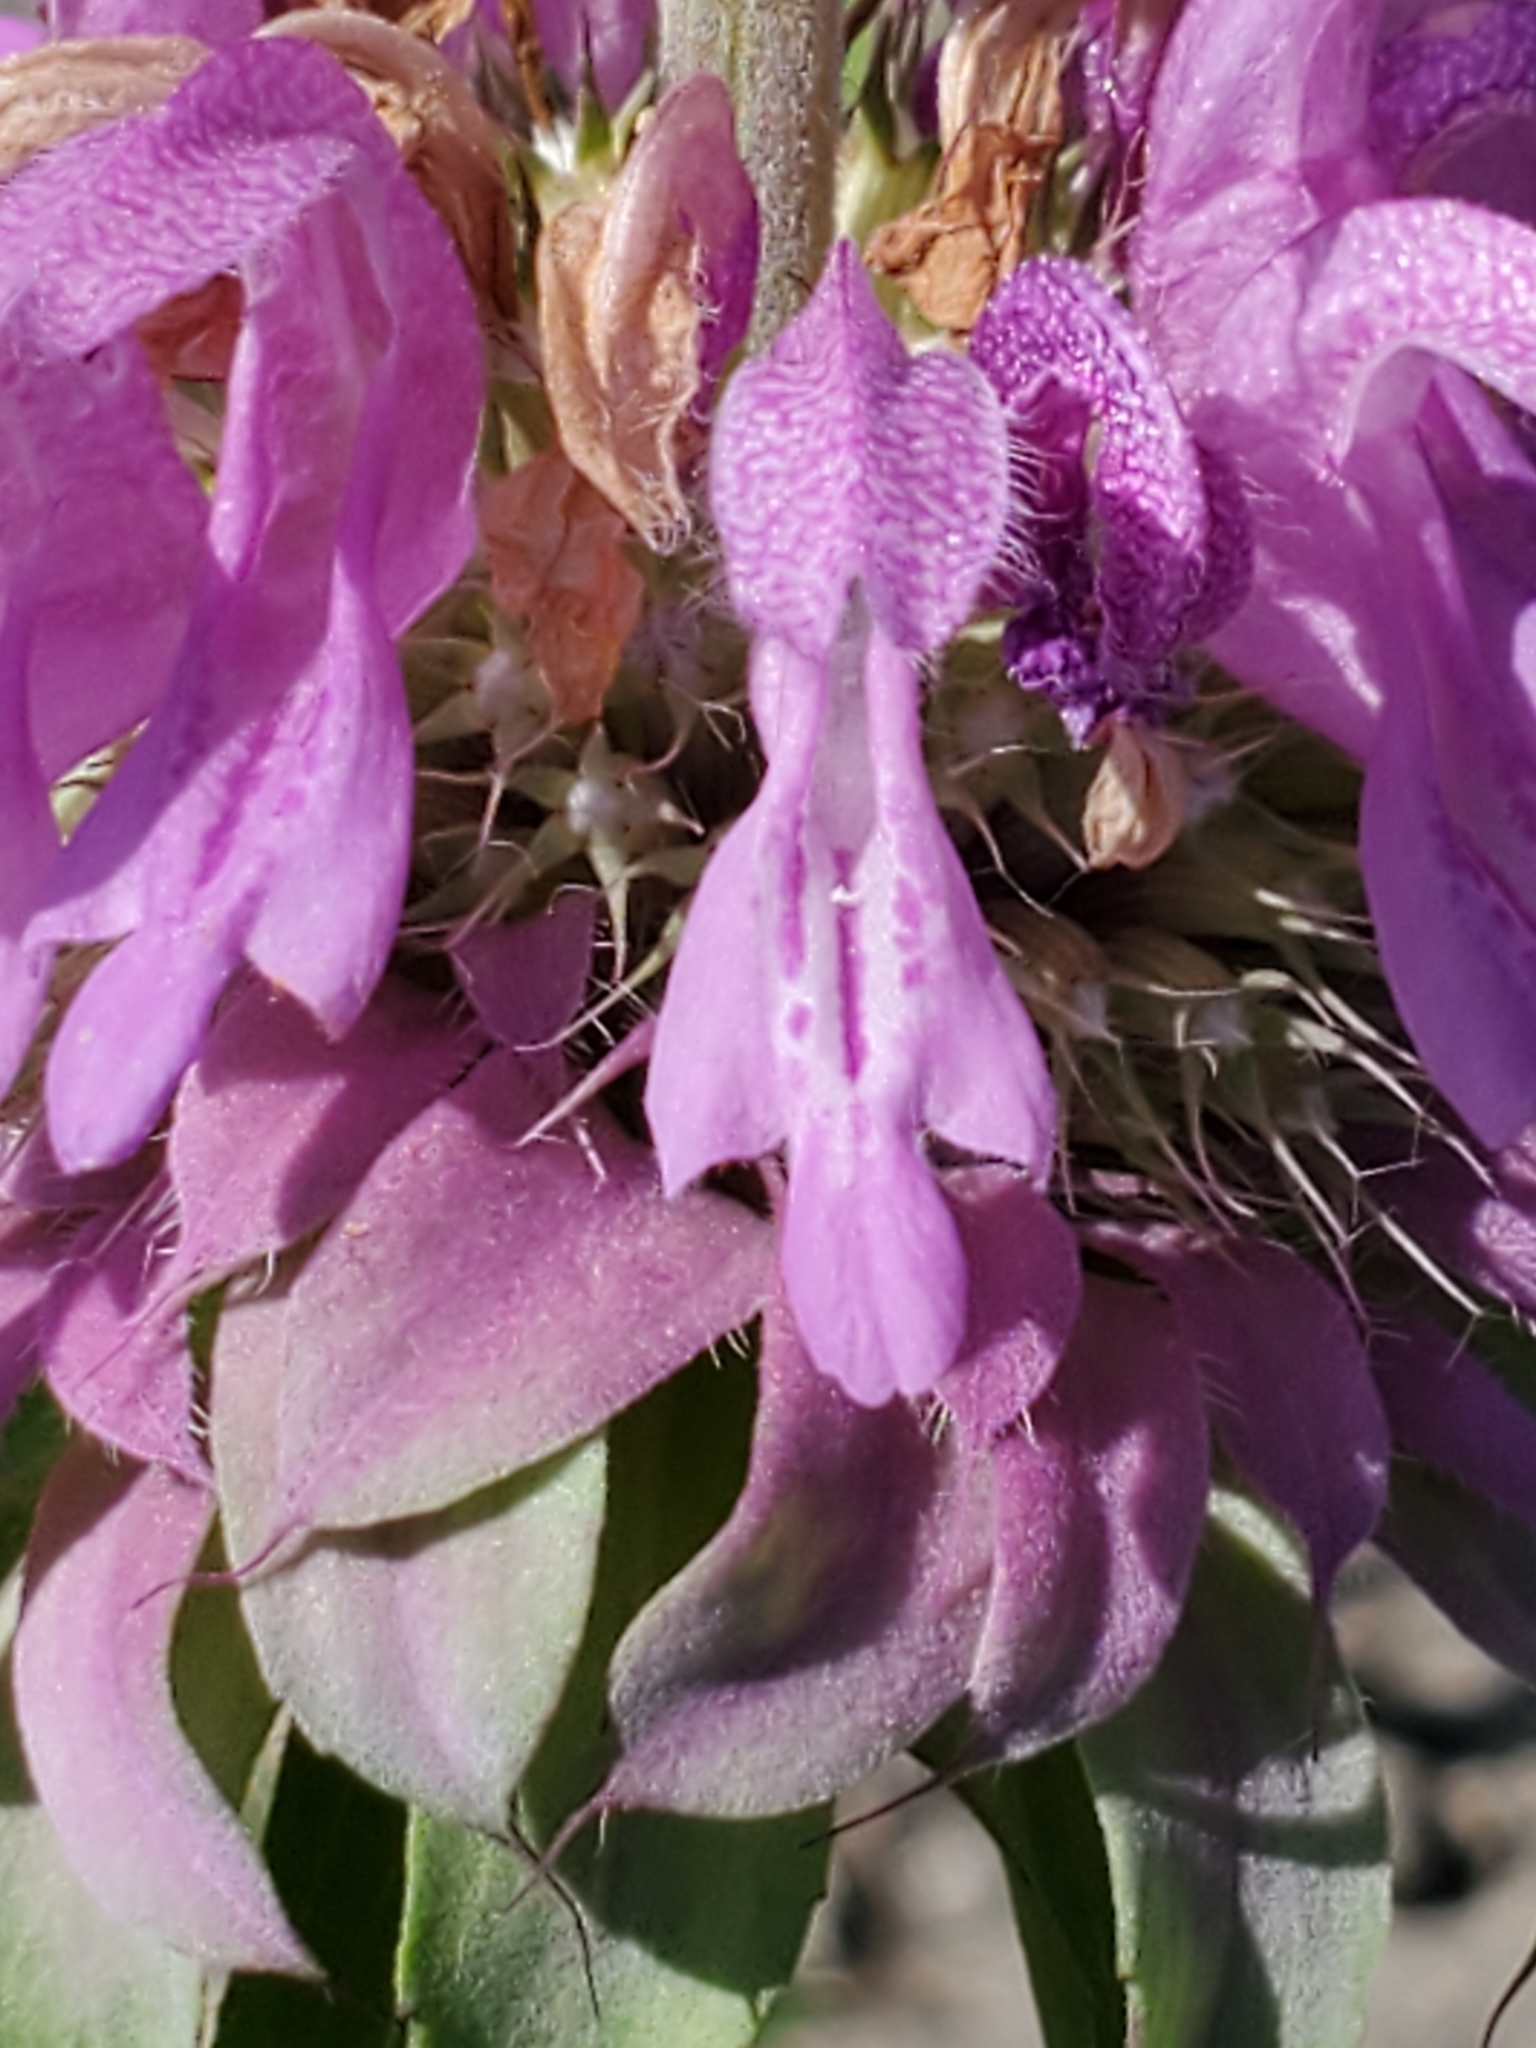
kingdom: Plantae
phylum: Tracheophyta
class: Magnoliopsida
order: Lamiales
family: Lamiaceae
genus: Monarda
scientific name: Monarda citriodora
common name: Lemon beebalm
